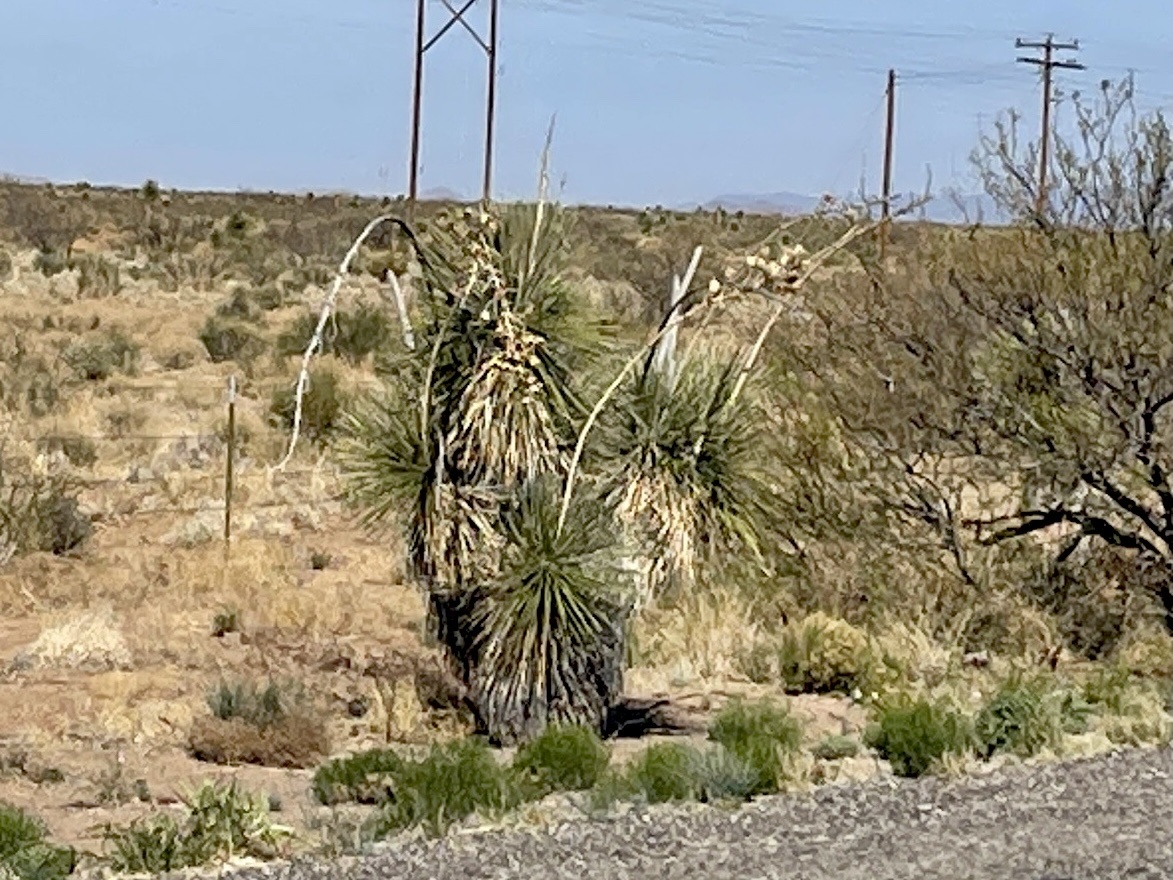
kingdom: Plantae
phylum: Tracheophyta
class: Liliopsida
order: Asparagales
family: Asparagaceae
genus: Yucca
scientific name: Yucca elata
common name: Palmella
